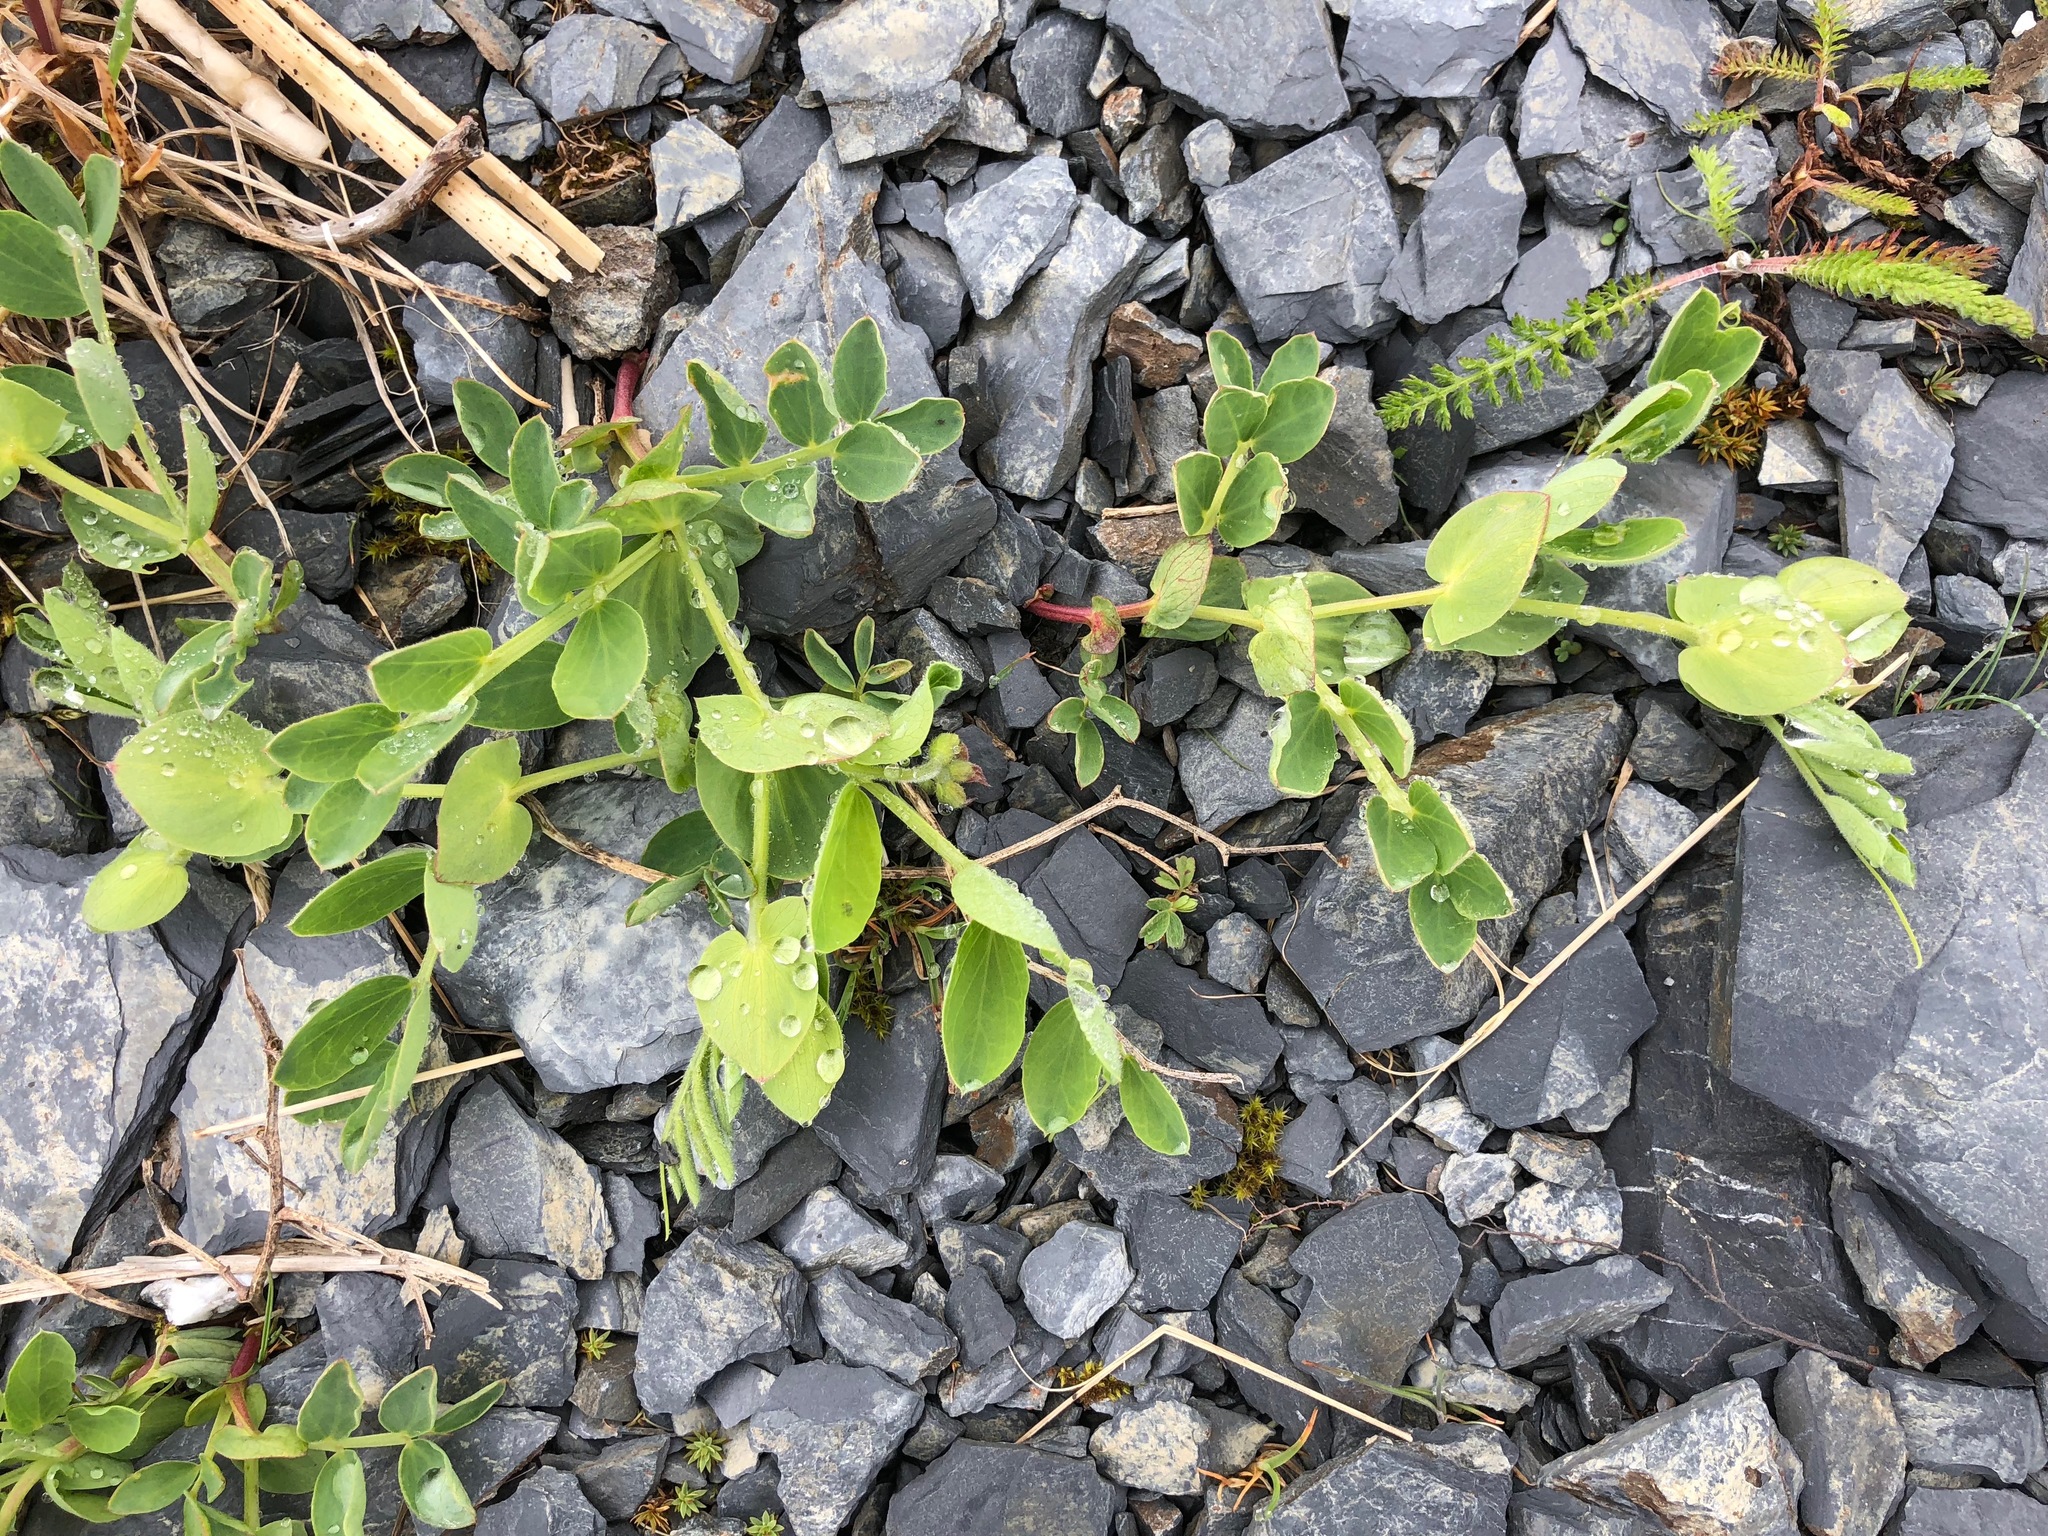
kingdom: Plantae
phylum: Tracheophyta
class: Magnoliopsida
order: Fabales
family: Fabaceae
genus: Lathyrus
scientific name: Lathyrus japonicus
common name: Sea pea
